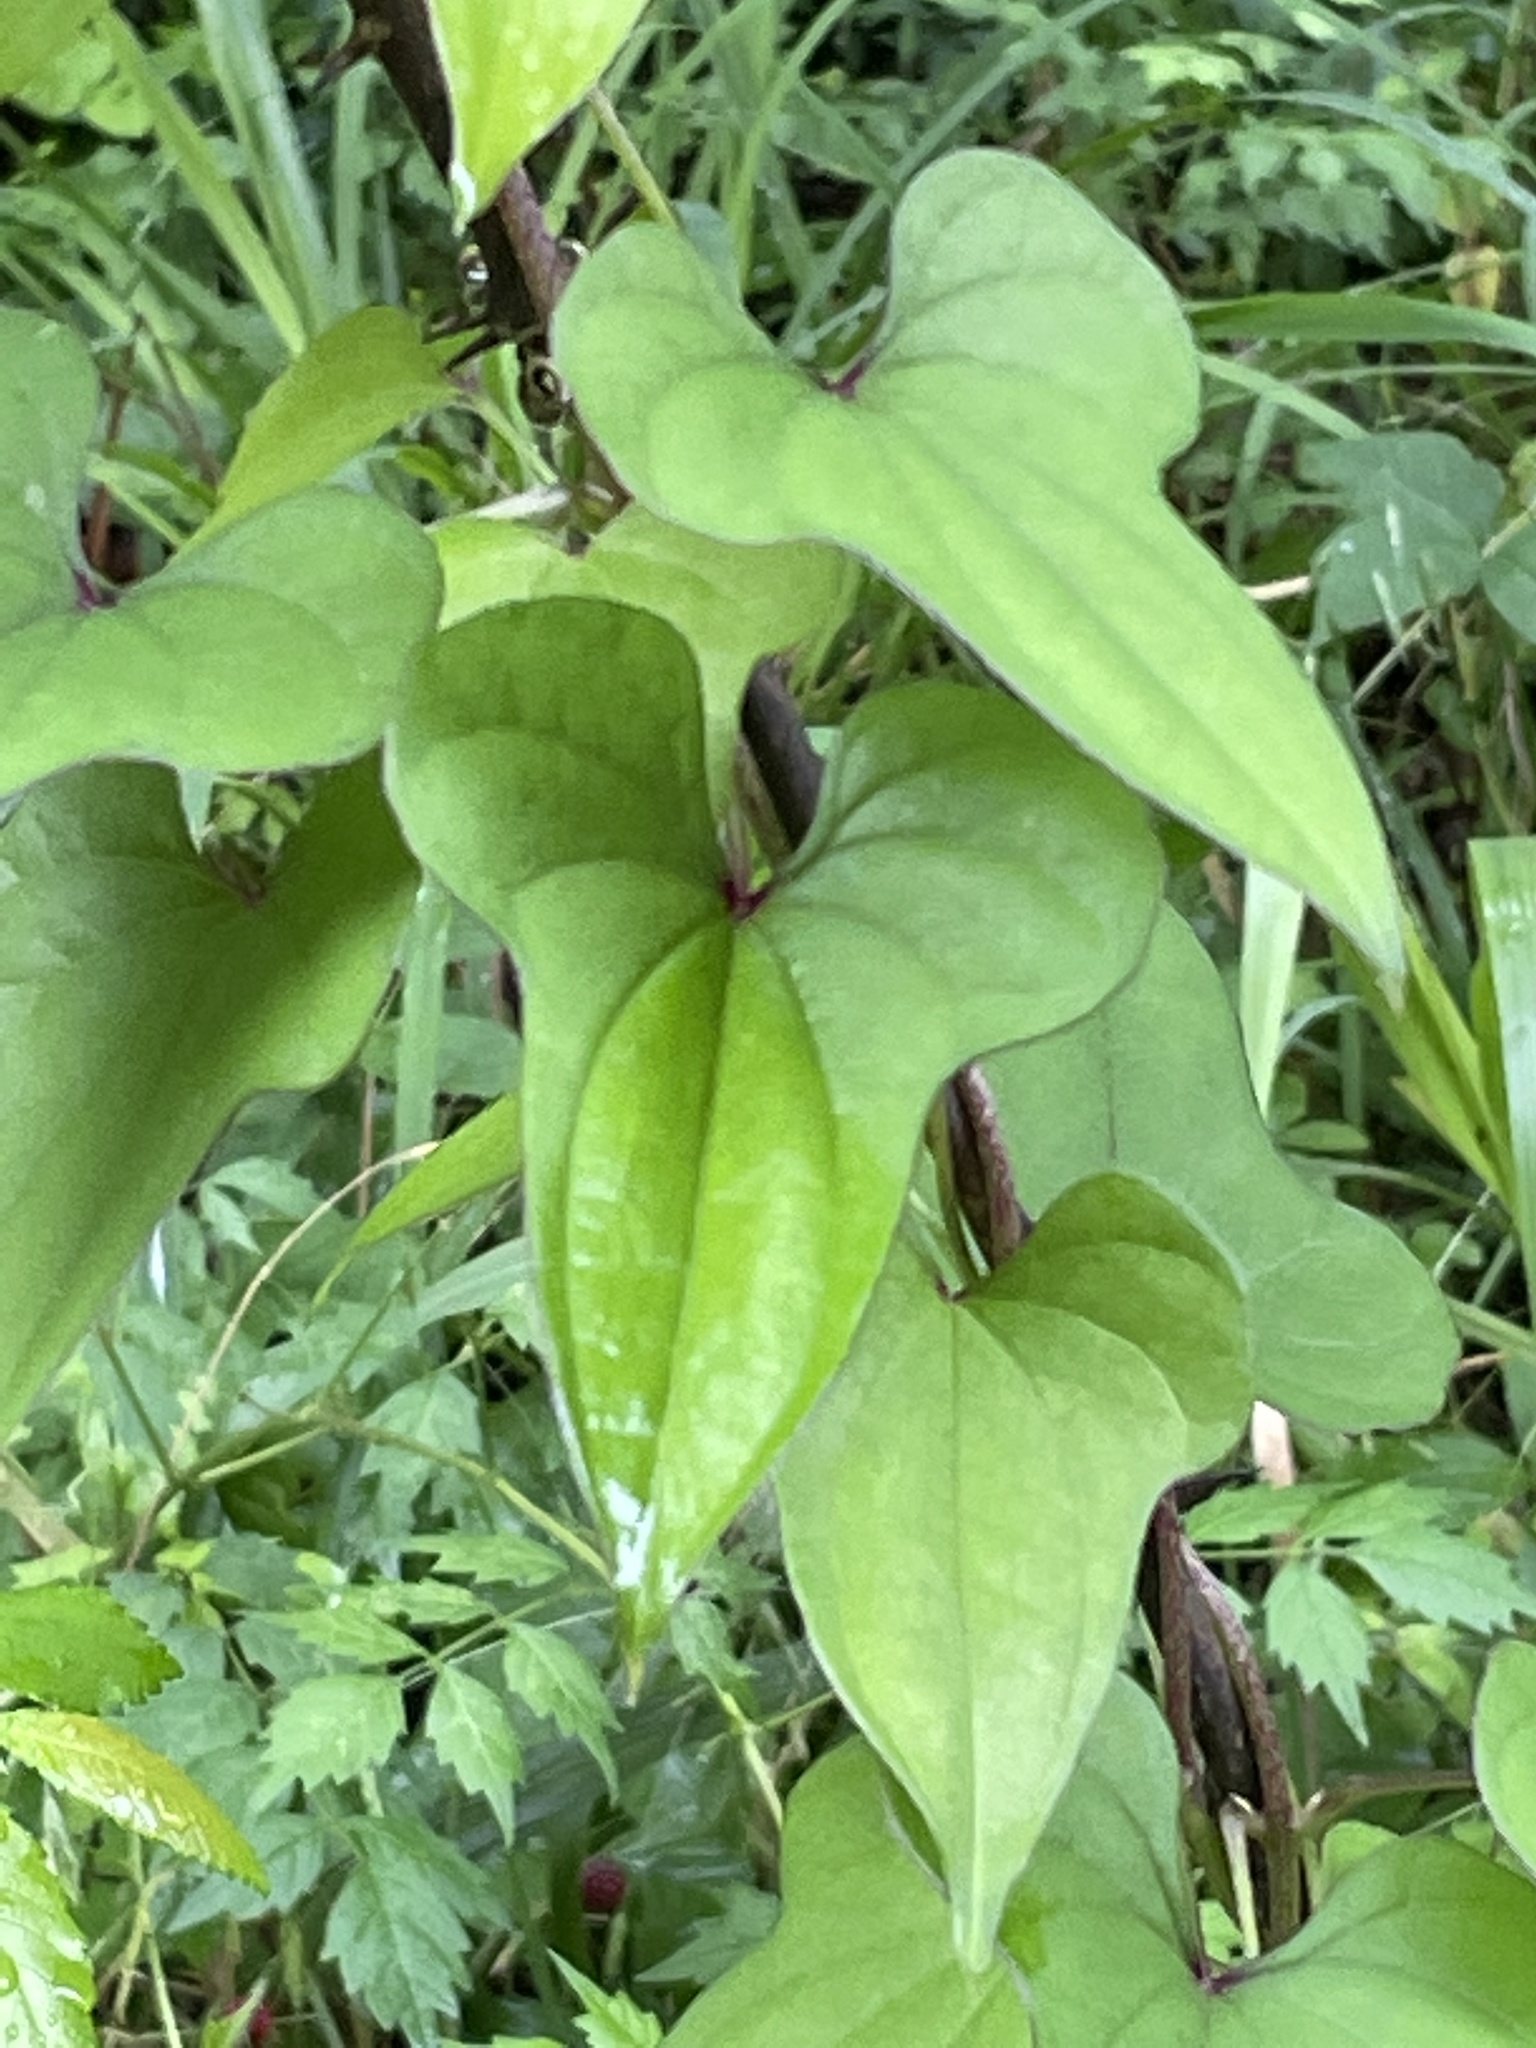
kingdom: Plantae
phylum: Tracheophyta
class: Liliopsida
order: Dioscoreales
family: Dioscoreaceae
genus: Dioscorea
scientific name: Dioscorea polystachya
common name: Chinese yam
